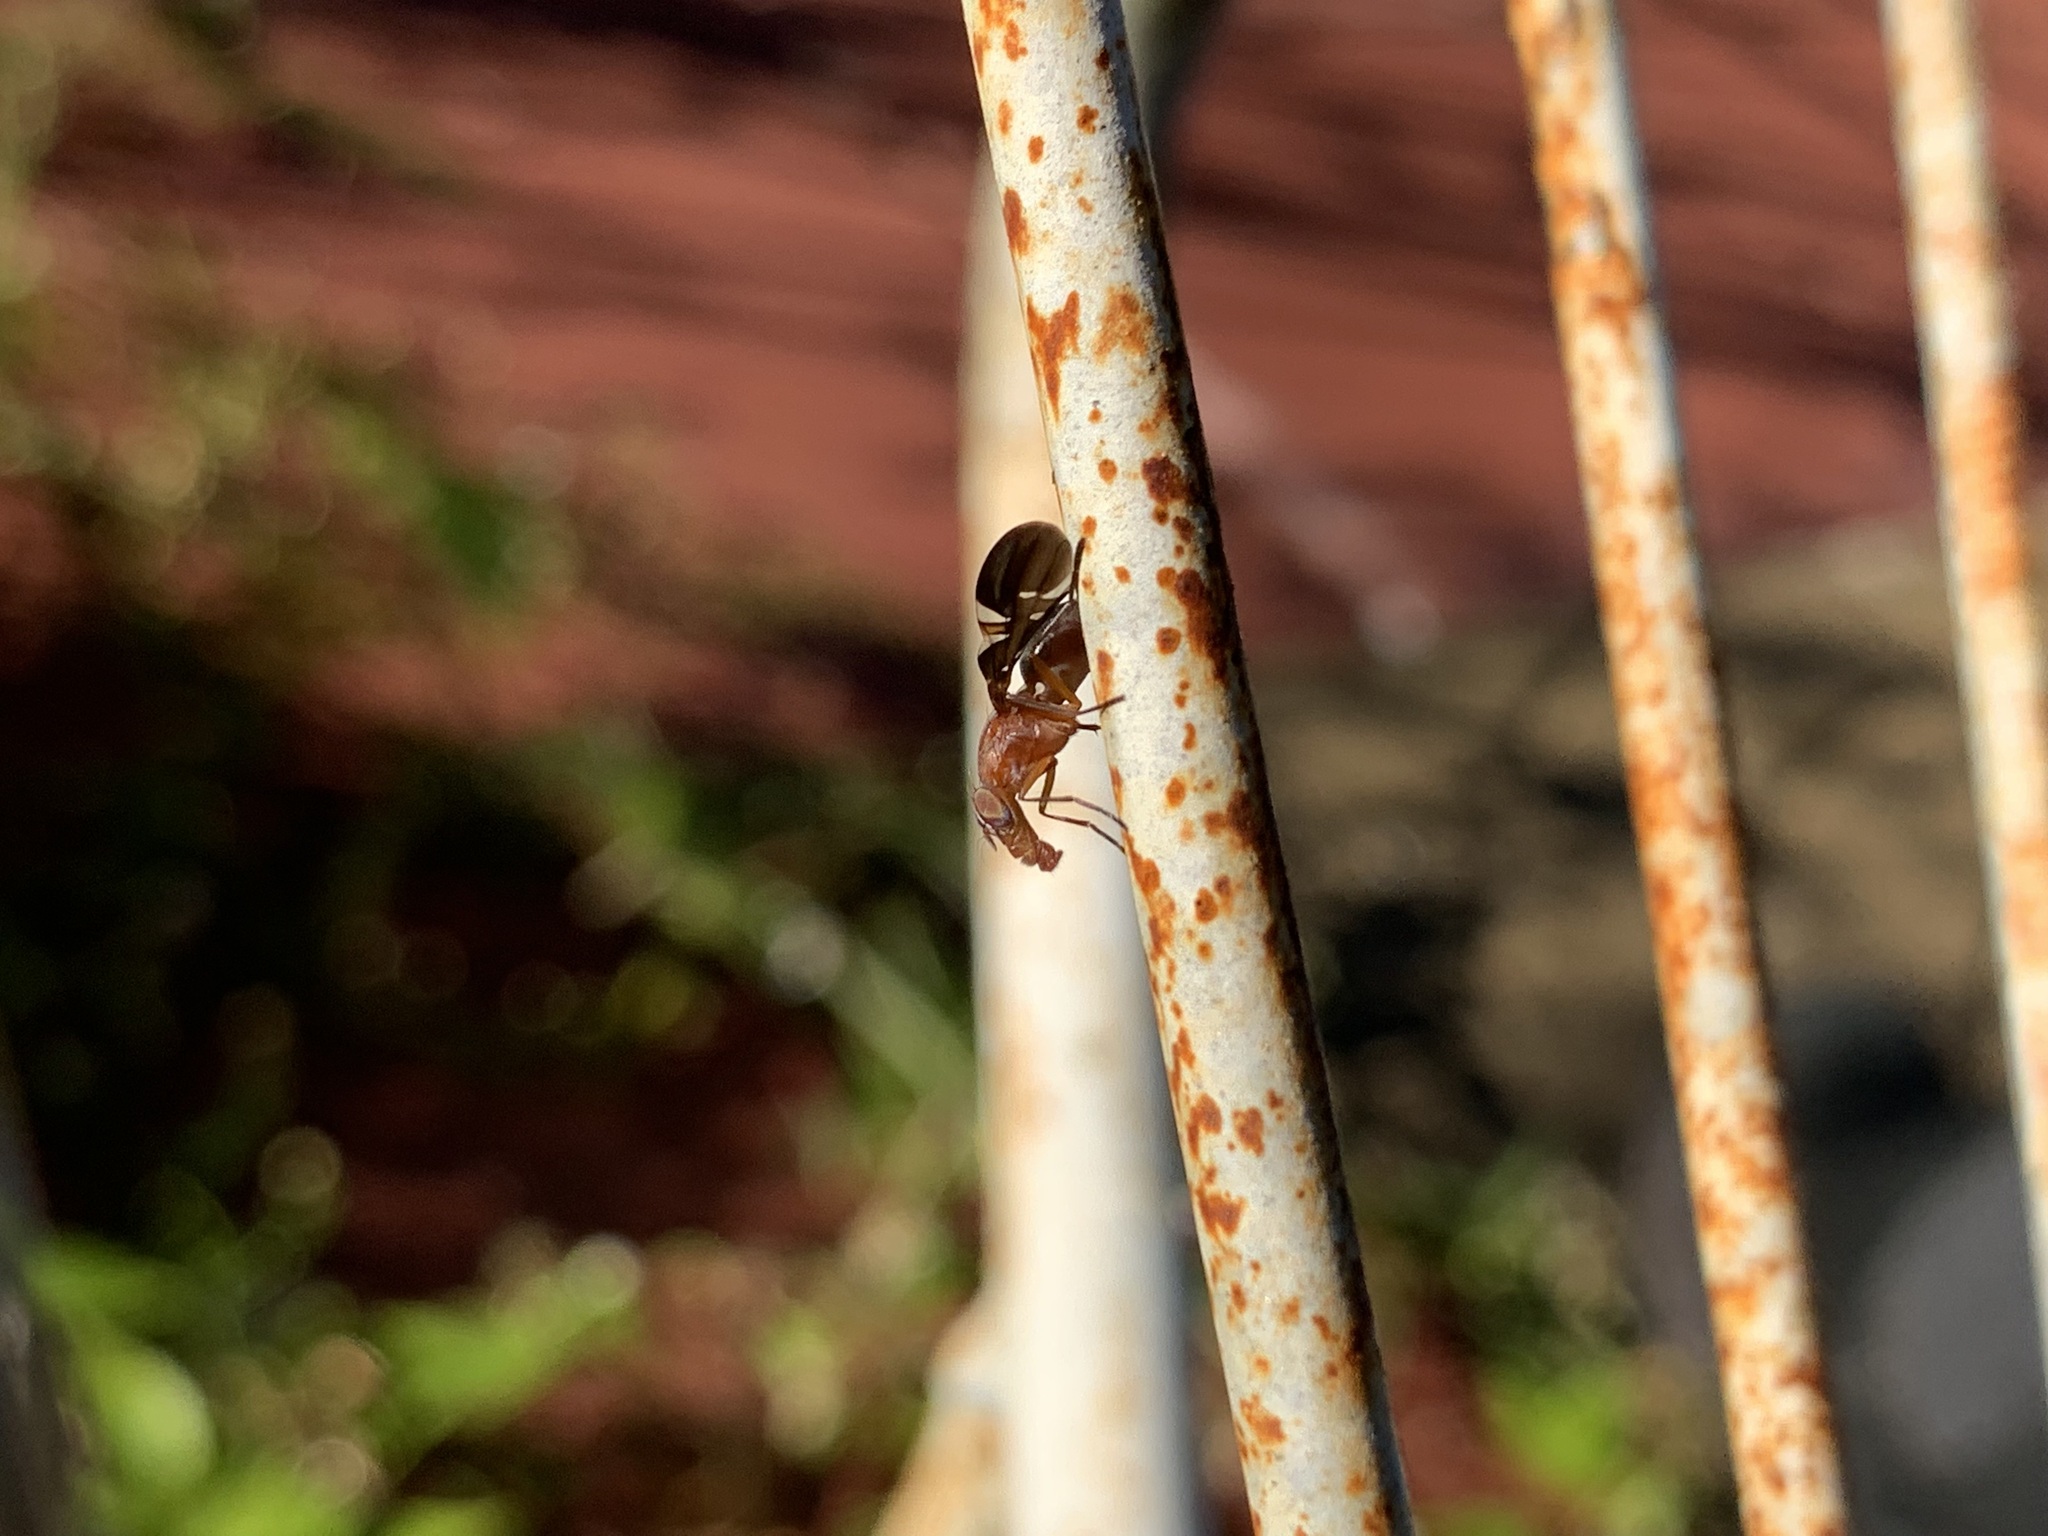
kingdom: Animalia
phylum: Arthropoda
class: Insecta
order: Diptera
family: Ulidiidae
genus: Delphinia
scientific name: Delphinia picta
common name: Common picture-winged fly
